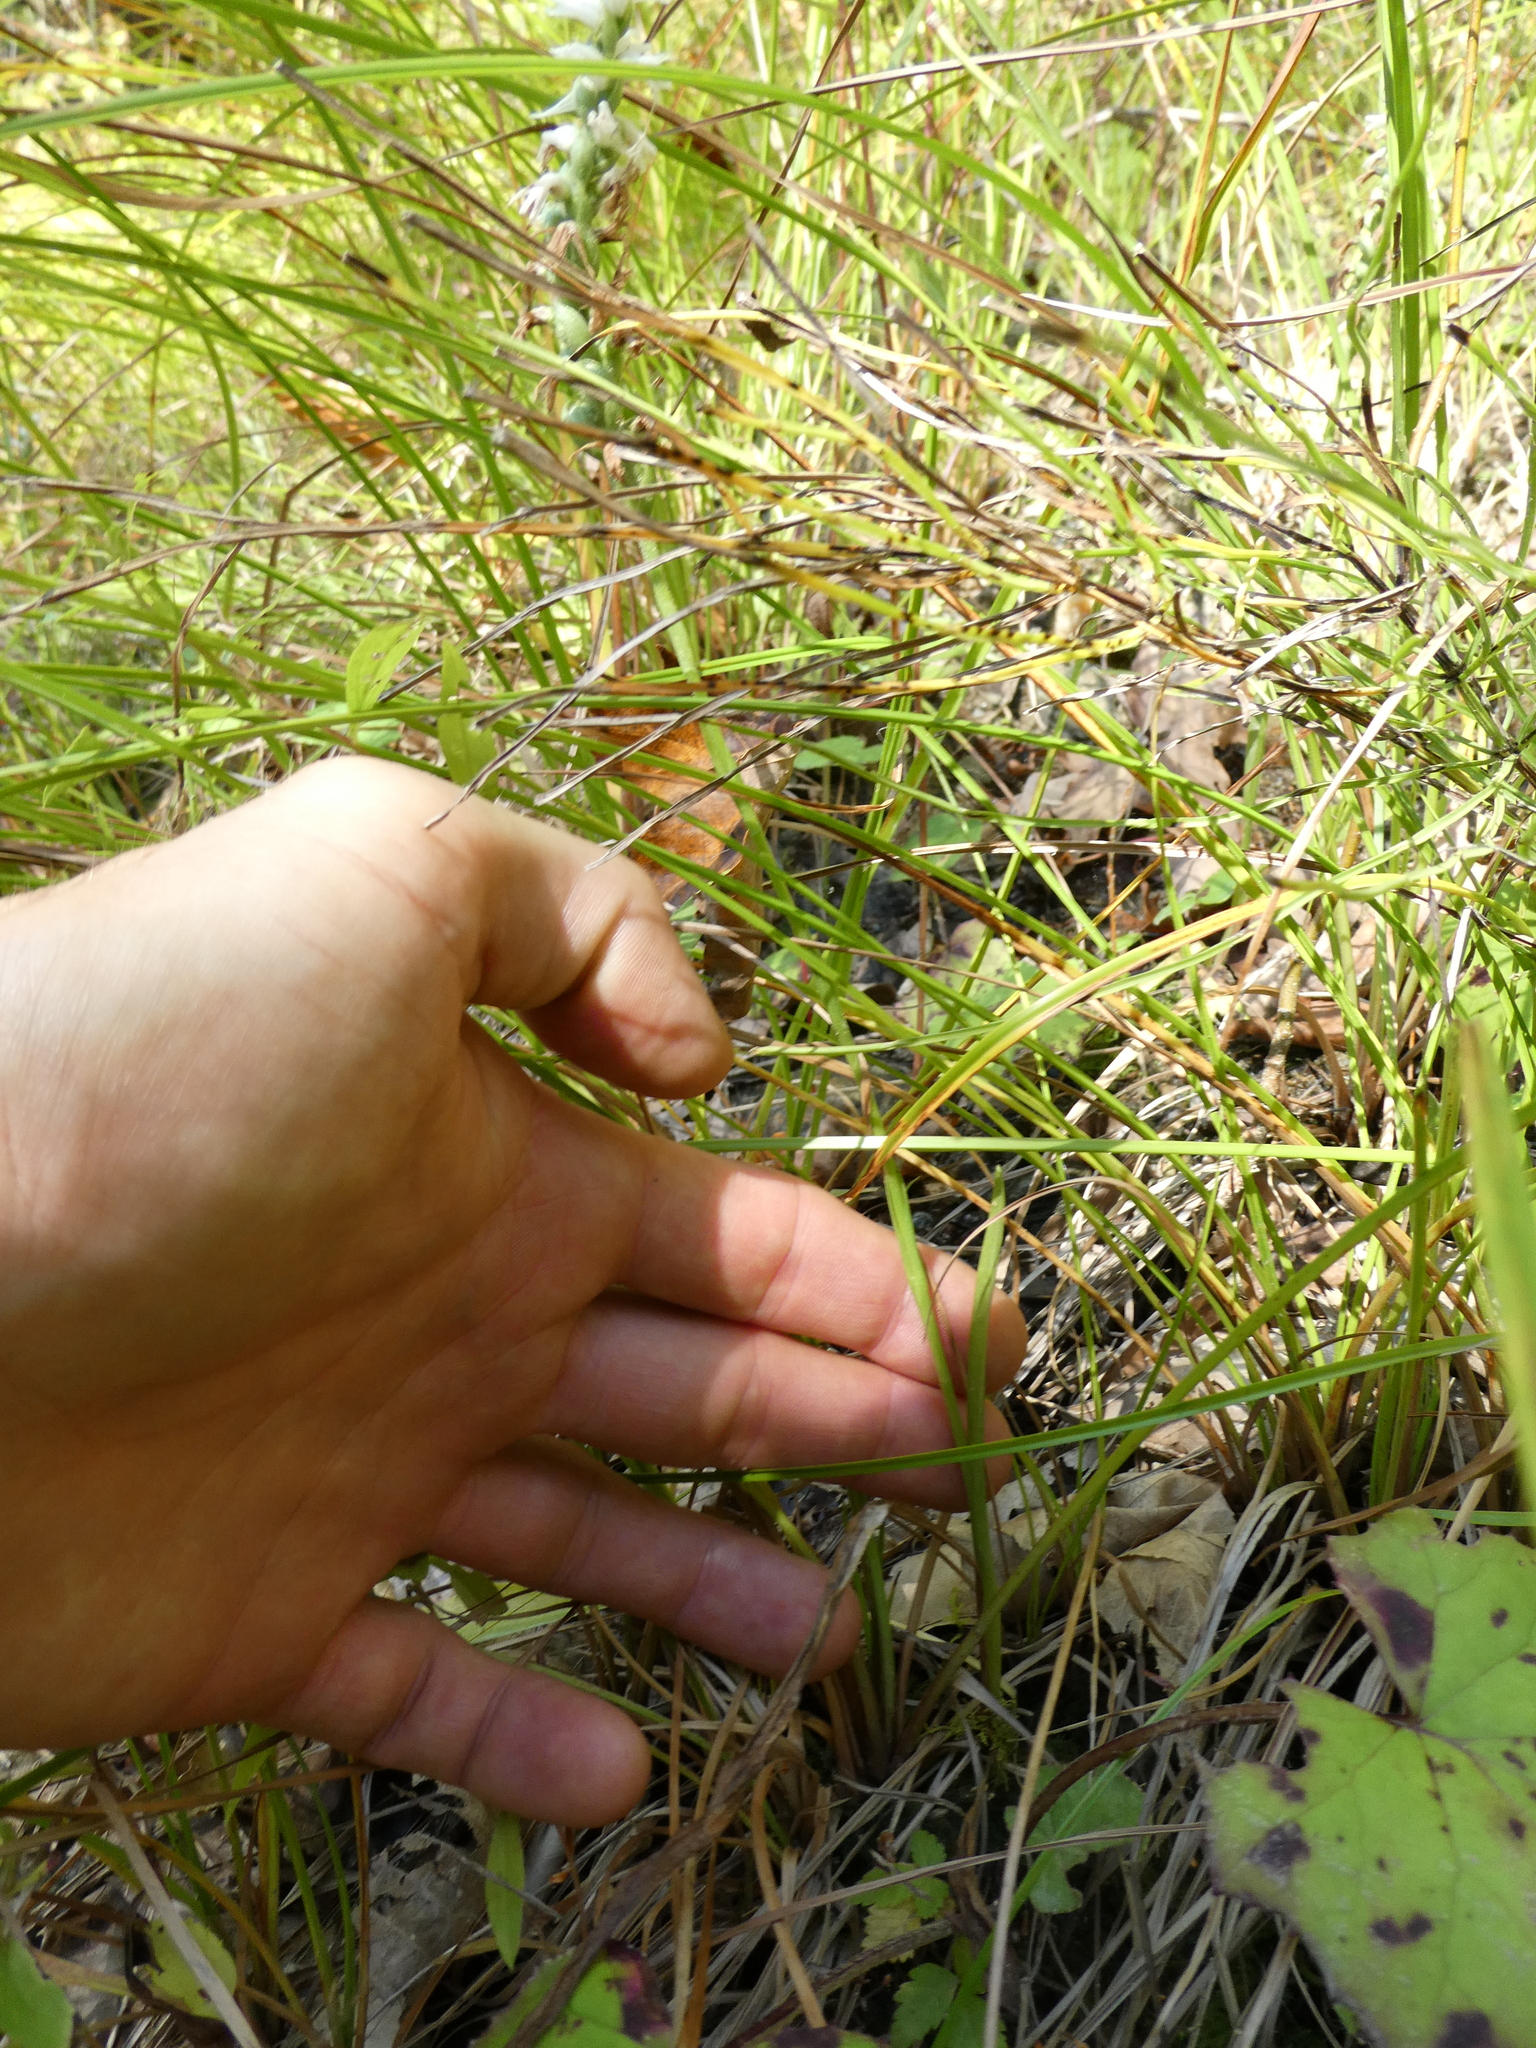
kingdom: Plantae
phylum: Tracheophyta
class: Liliopsida
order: Asparagales
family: Orchidaceae
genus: Spiranthes
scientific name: Spiranthes incurva
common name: Sphinx ladies'-tresses
